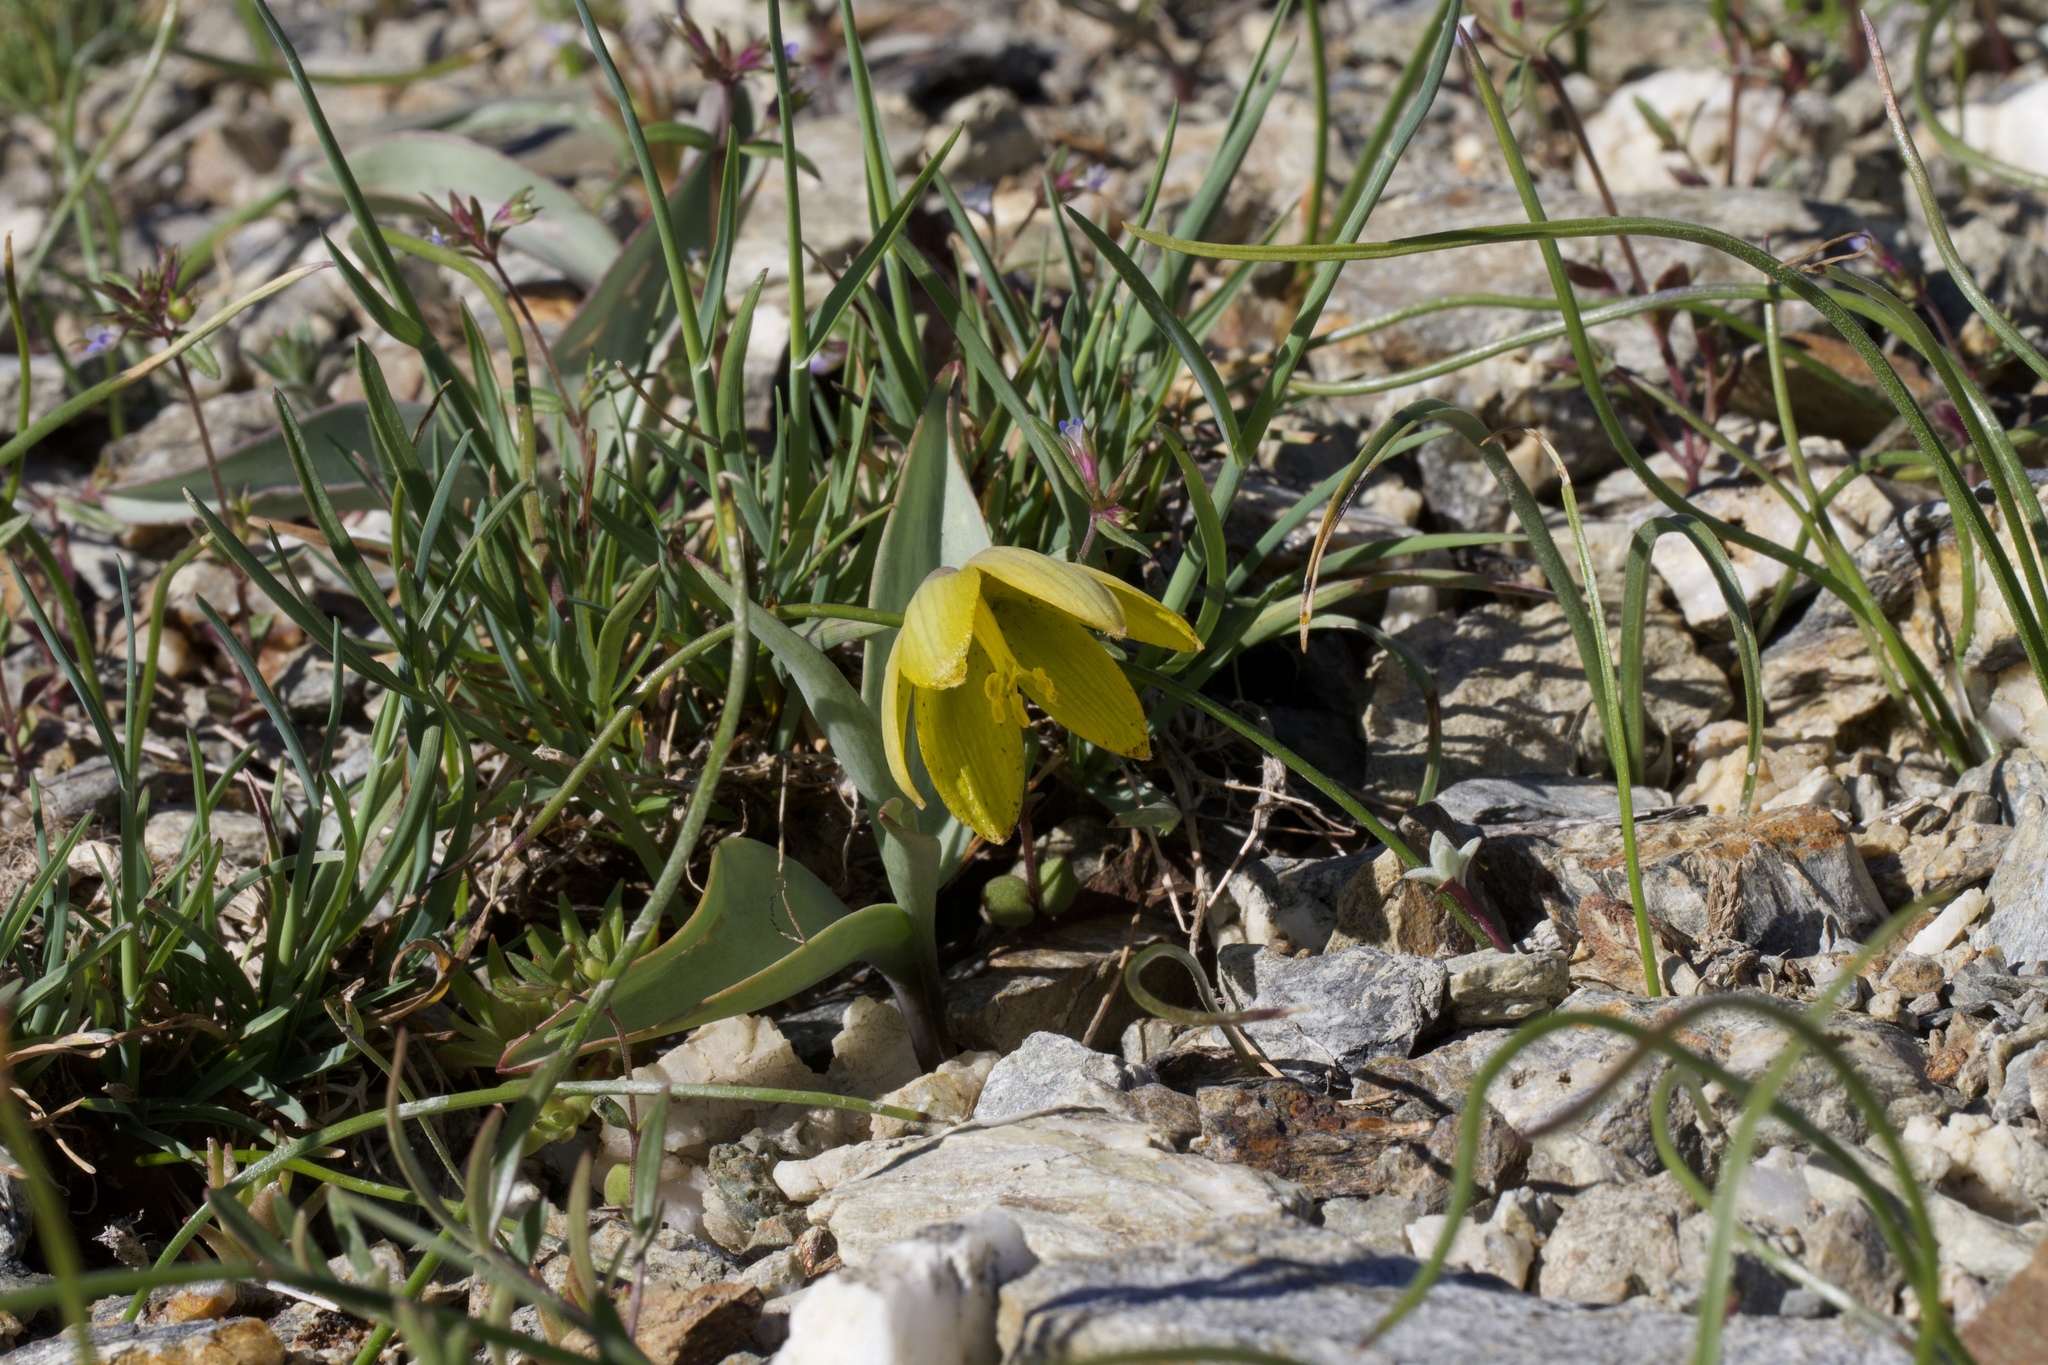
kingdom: Plantae
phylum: Tracheophyta
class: Liliopsida
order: Liliales
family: Liliaceae
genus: Fritillaria
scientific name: Fritillaria glauca
